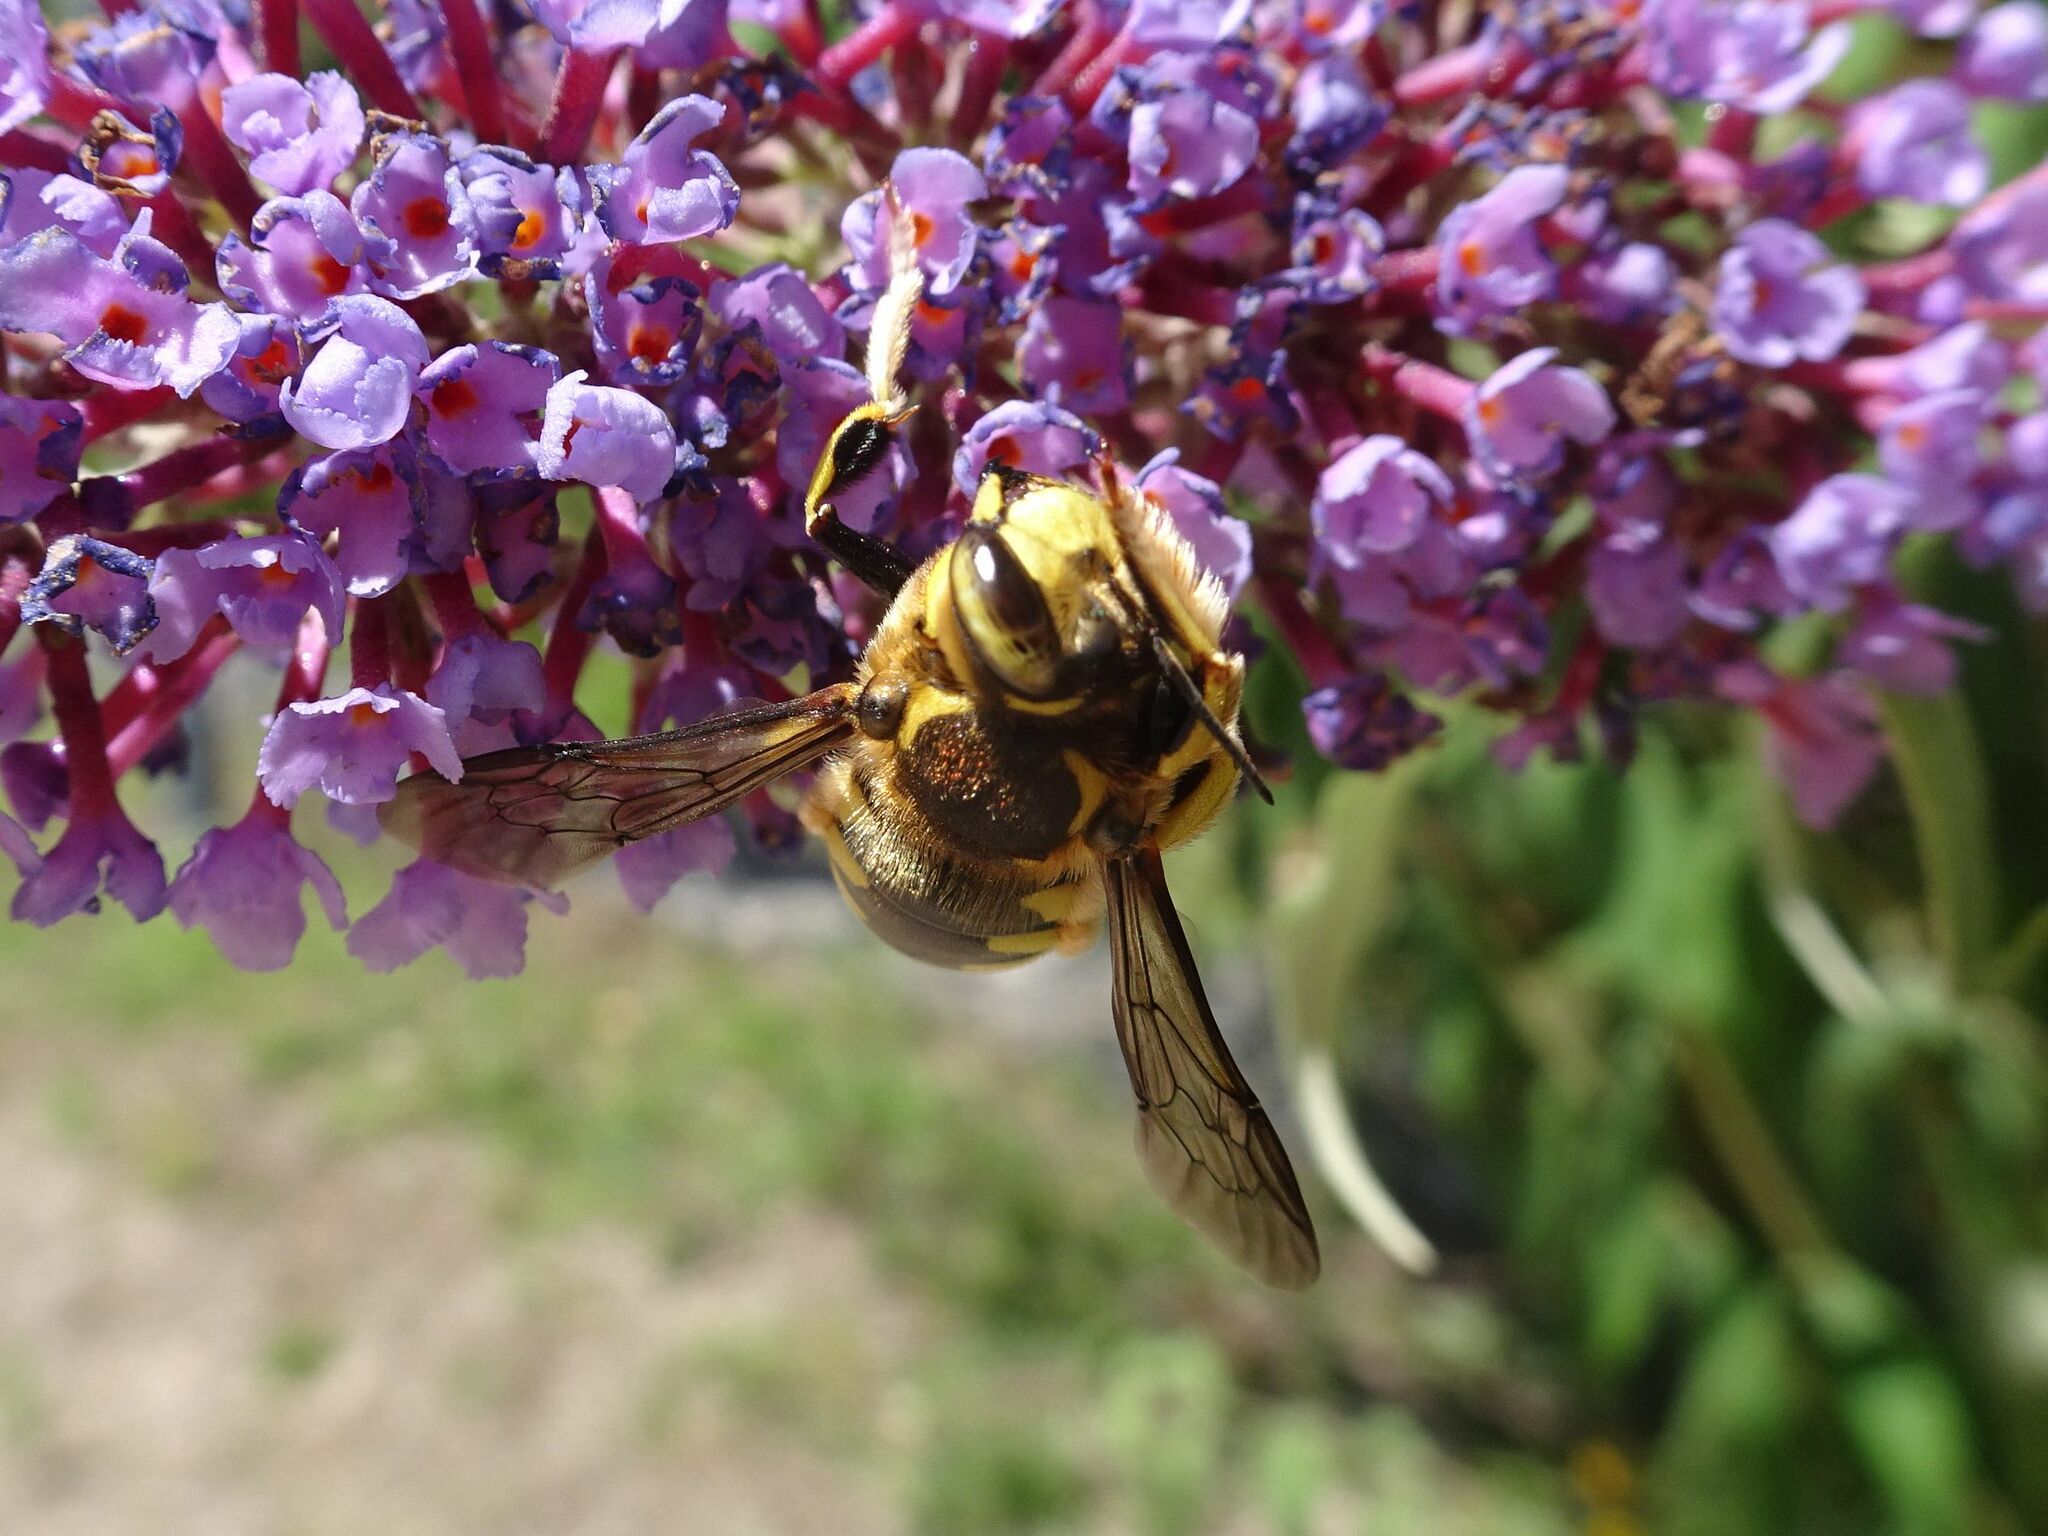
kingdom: Animalia
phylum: Arthropoda
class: Insecta
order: Hymenoptera
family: Megachilidae
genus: Anthidium
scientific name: Anthidium florentinum
